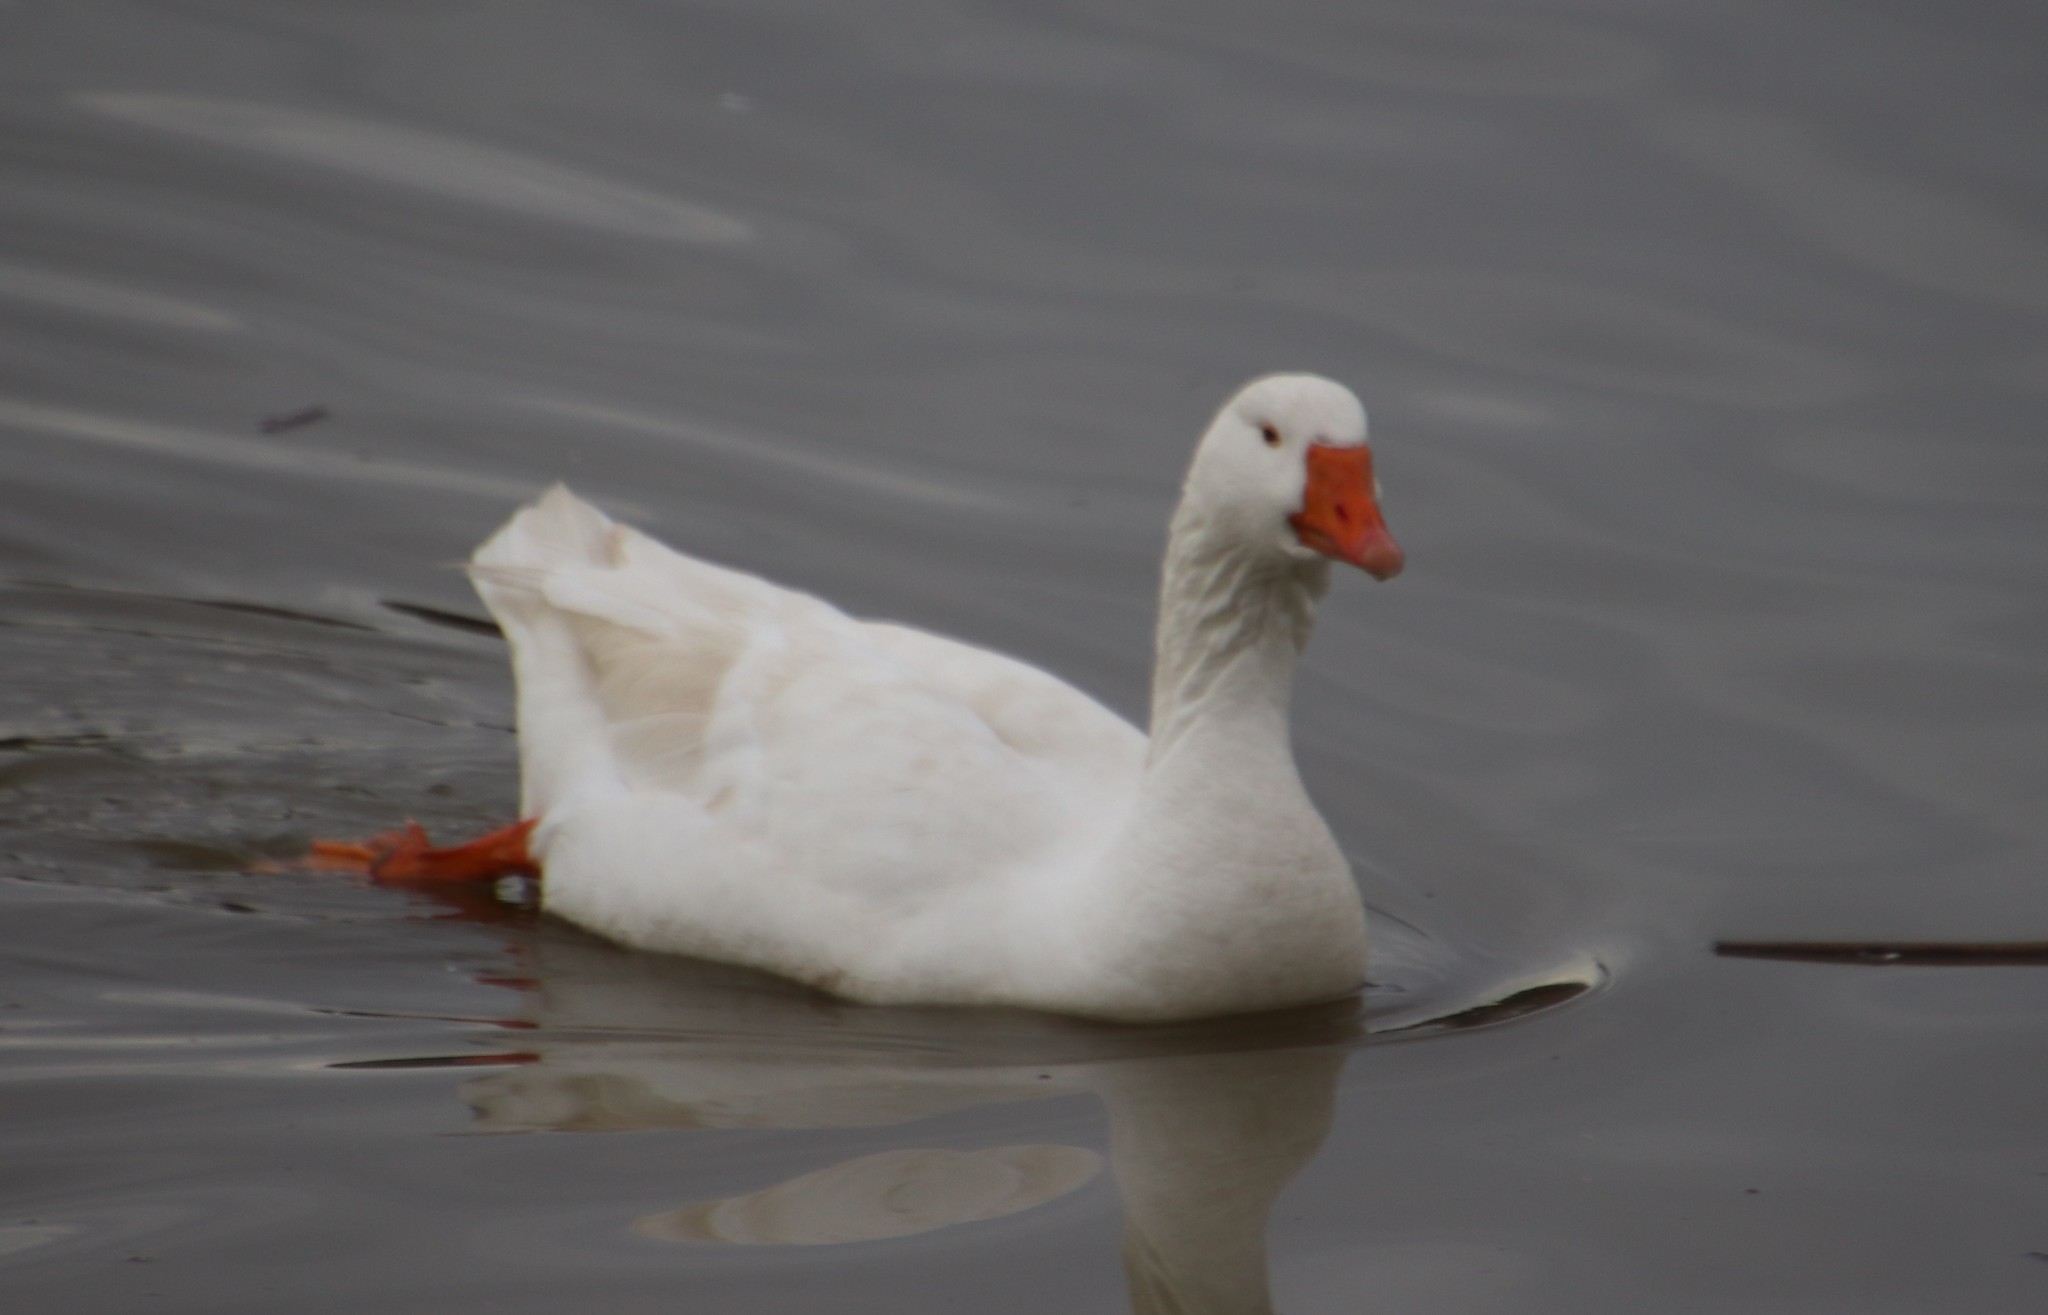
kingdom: Animalia
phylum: Chordata
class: Aves
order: Anseriformes
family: Anatidae
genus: Anser
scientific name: Anser anser
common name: Greylag goose
